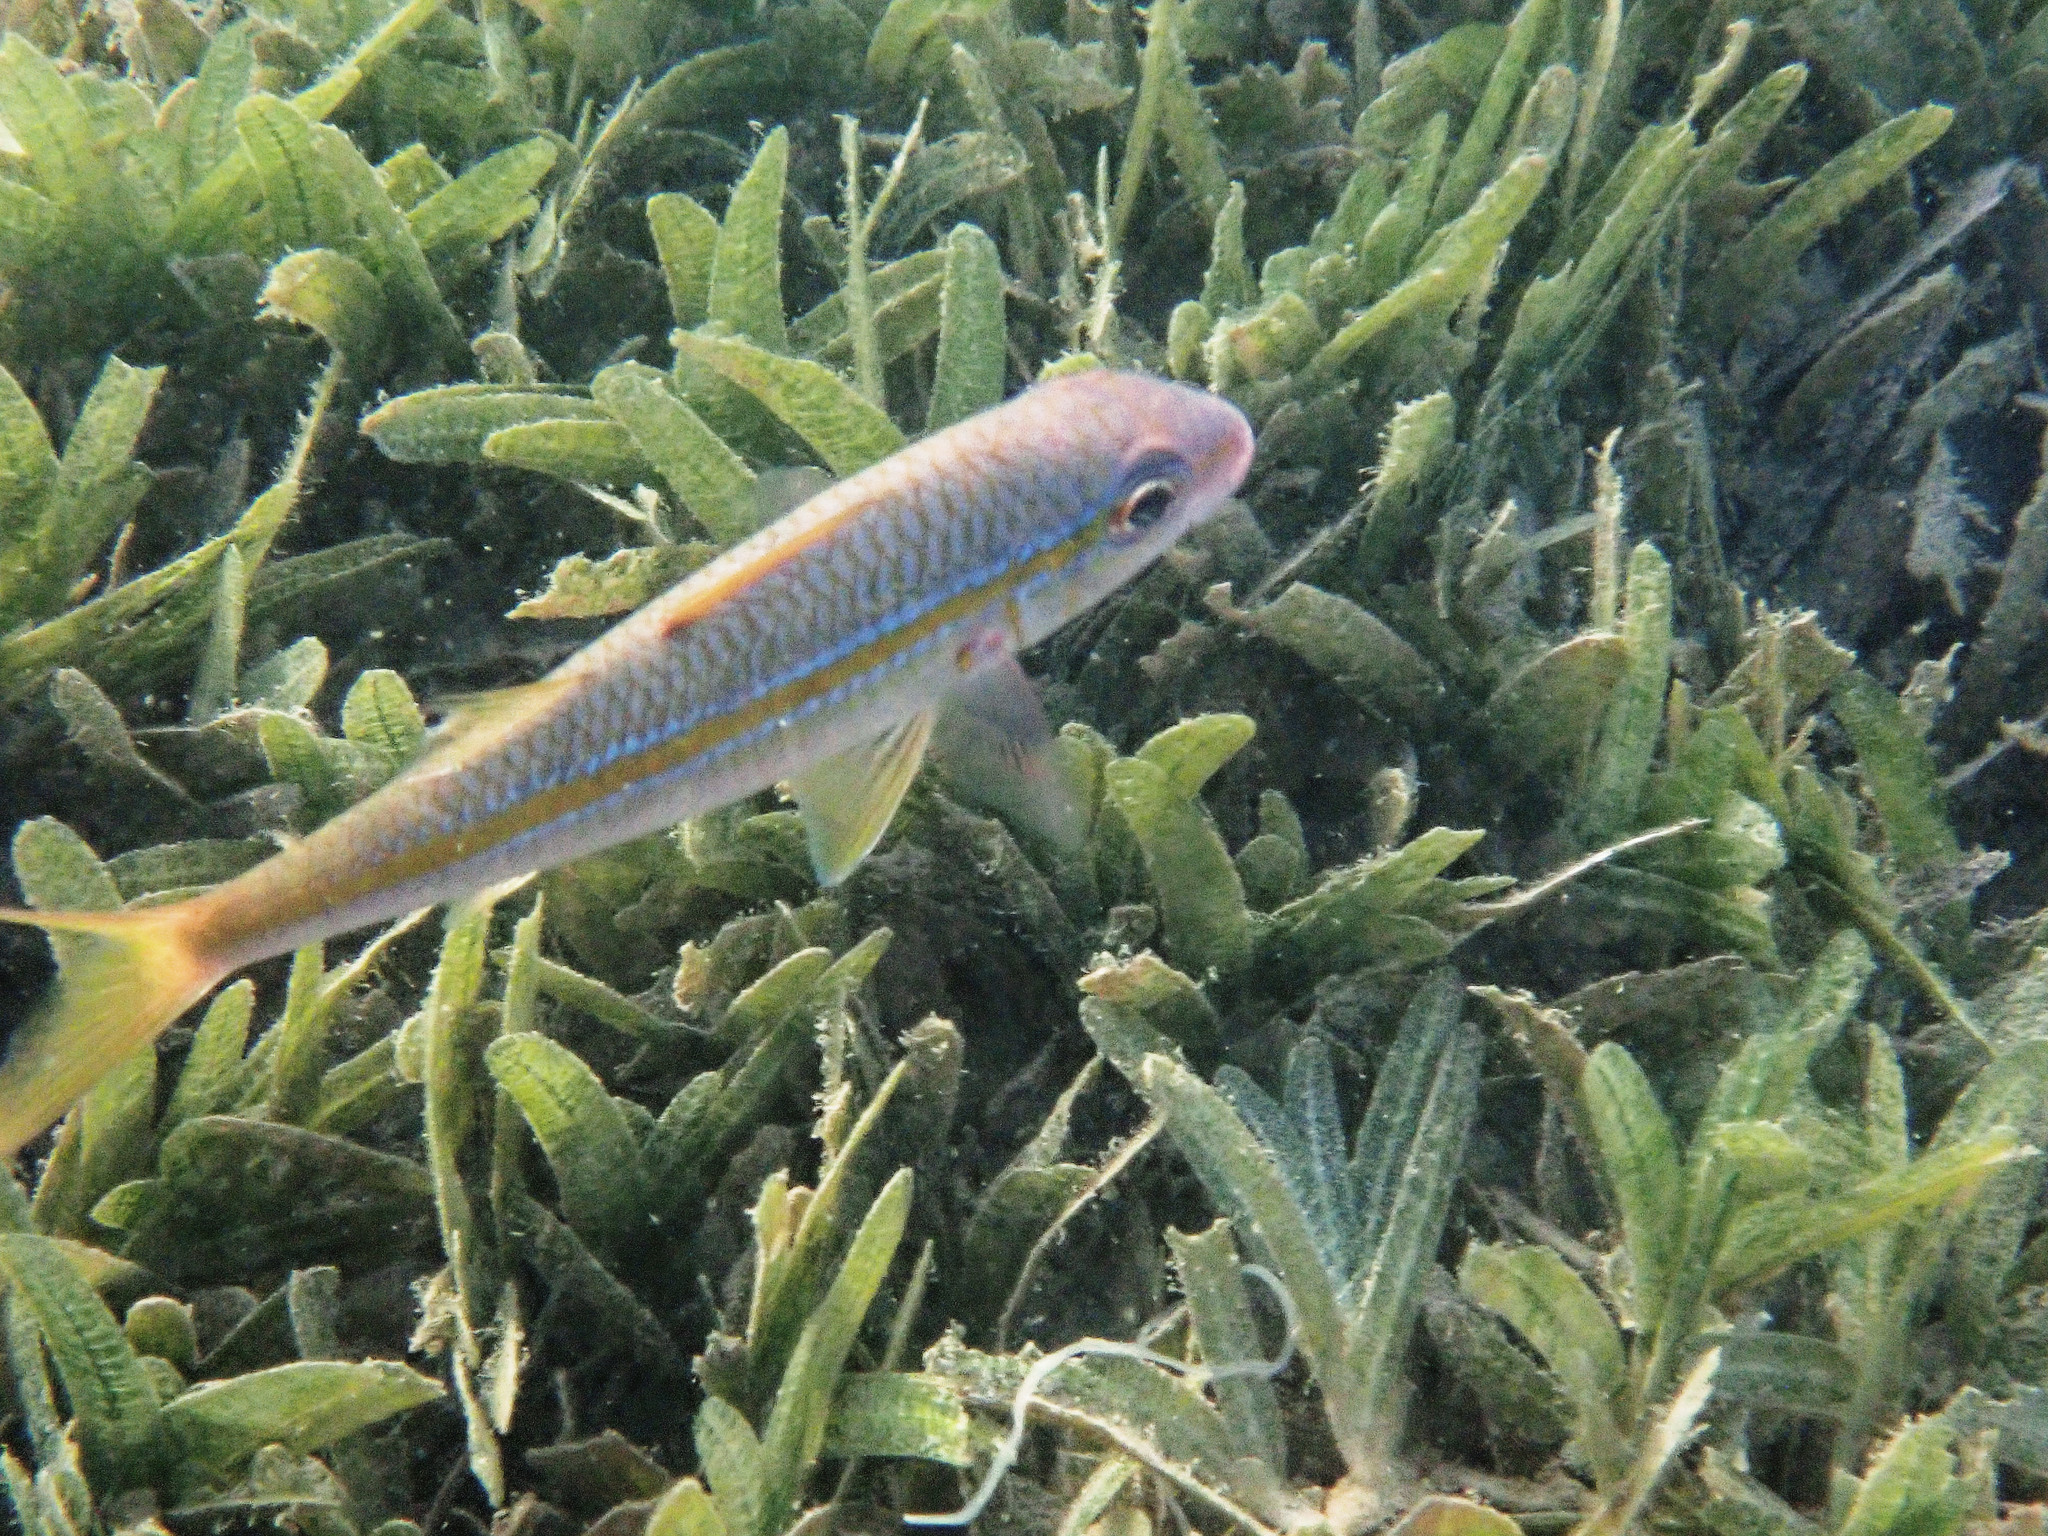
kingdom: Animalia
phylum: Chordata
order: Perciformes
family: Mullidae
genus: Mulloidichthys
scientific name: Mulloidichthys martinicus
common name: Yellow goatfish
